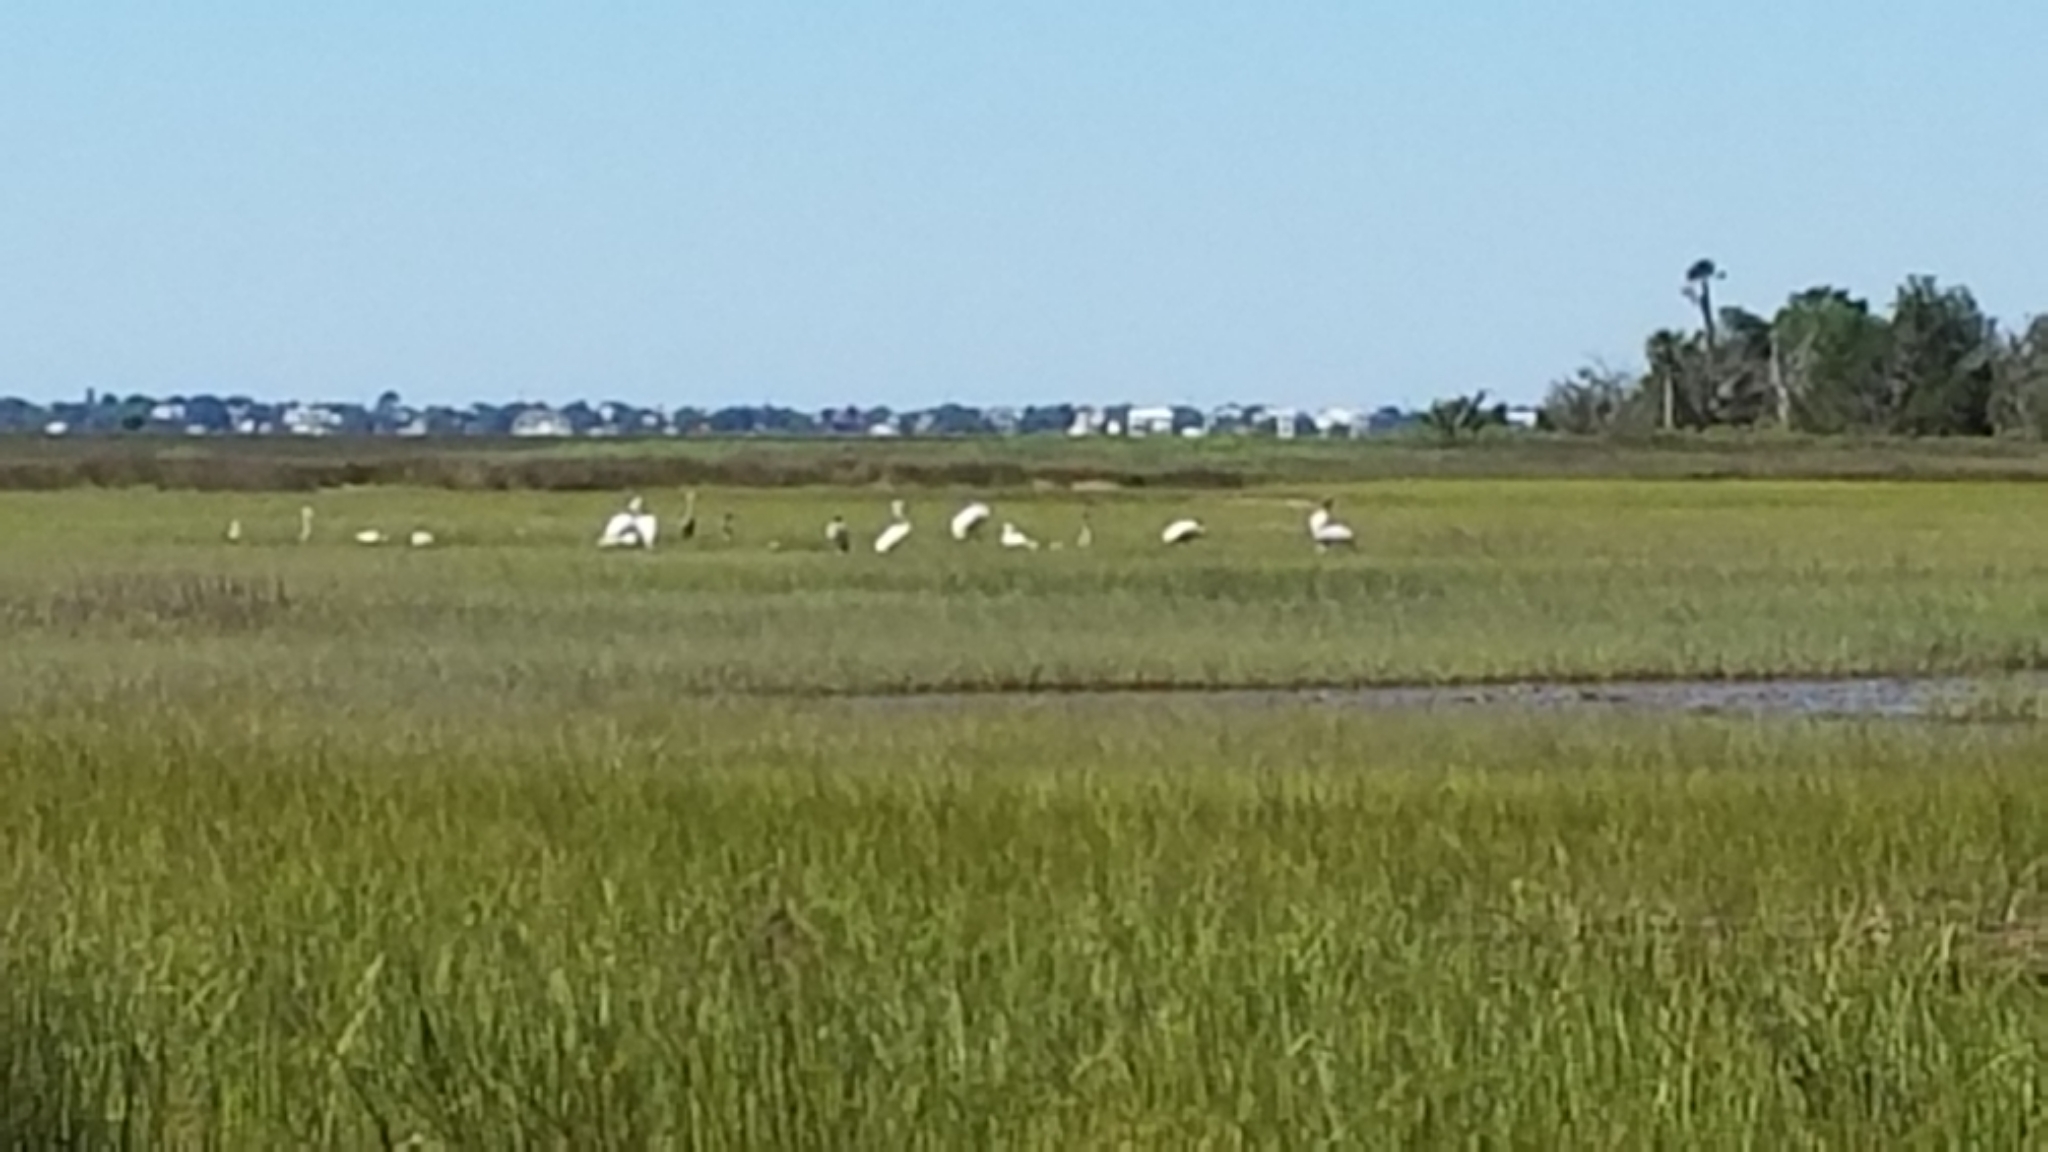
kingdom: Animalia
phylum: Chordata
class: Aves
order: Ciconiiformes
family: Ciconiidae
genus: Mycteria
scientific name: Mycteria americana
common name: Wood stork
